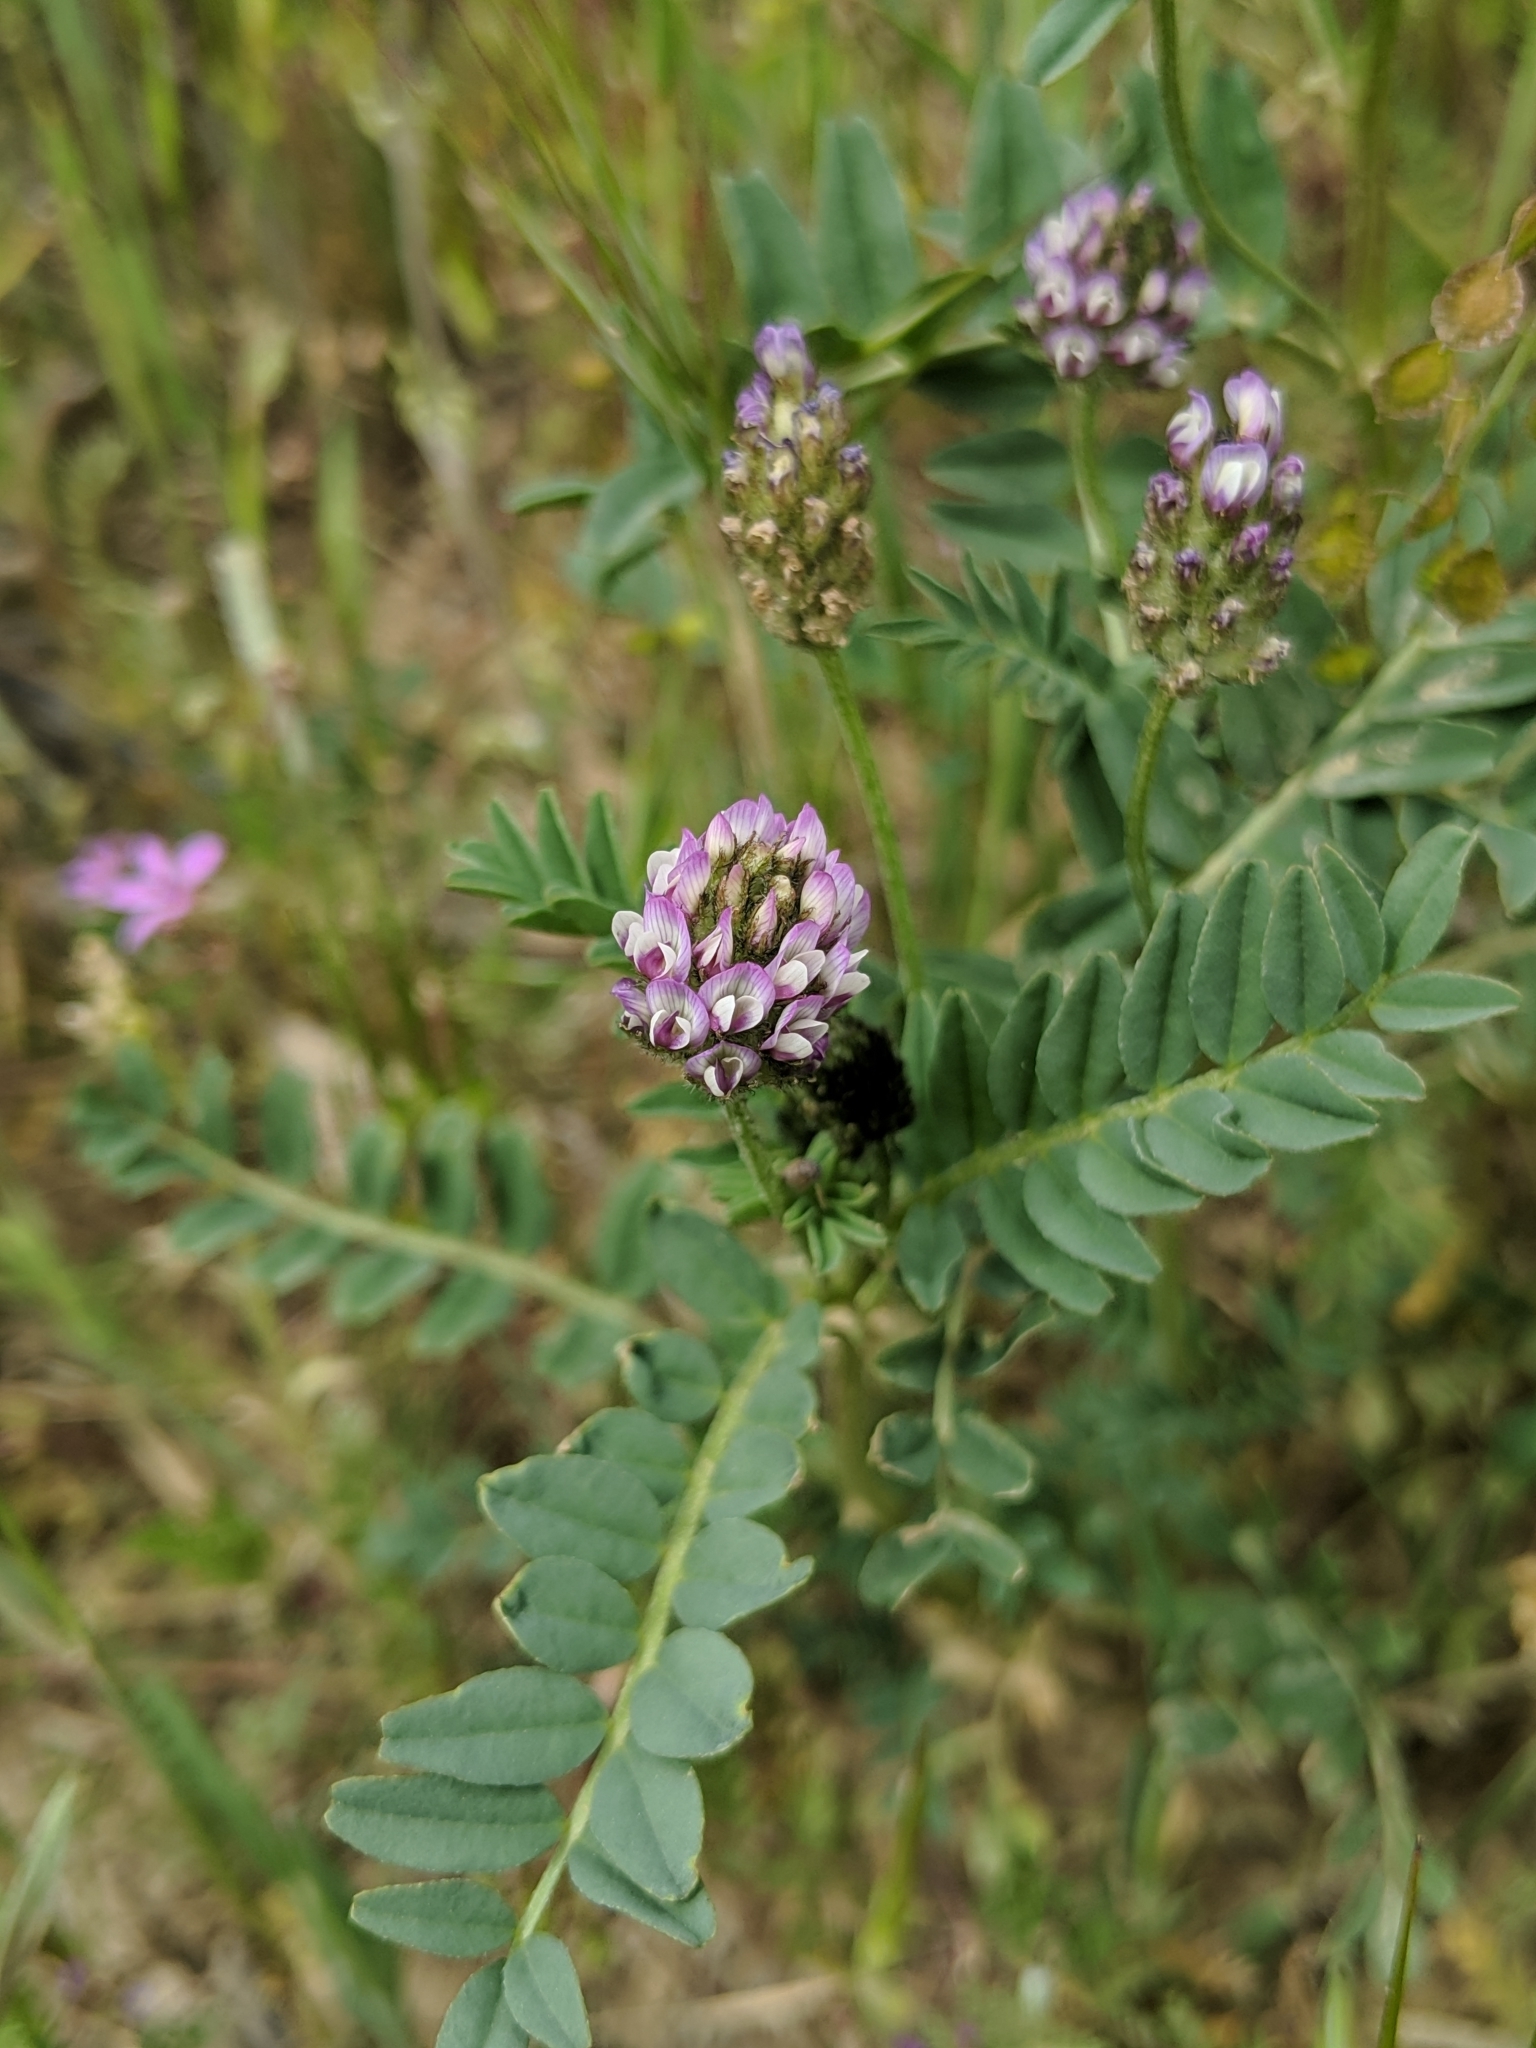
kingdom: Plantae
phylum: Tracheophyta
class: Magnoliopsida
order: Fabales
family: Fabaceae
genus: Astragalus
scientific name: Astragalus didymocarpus
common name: Dwarf white milkvetch
